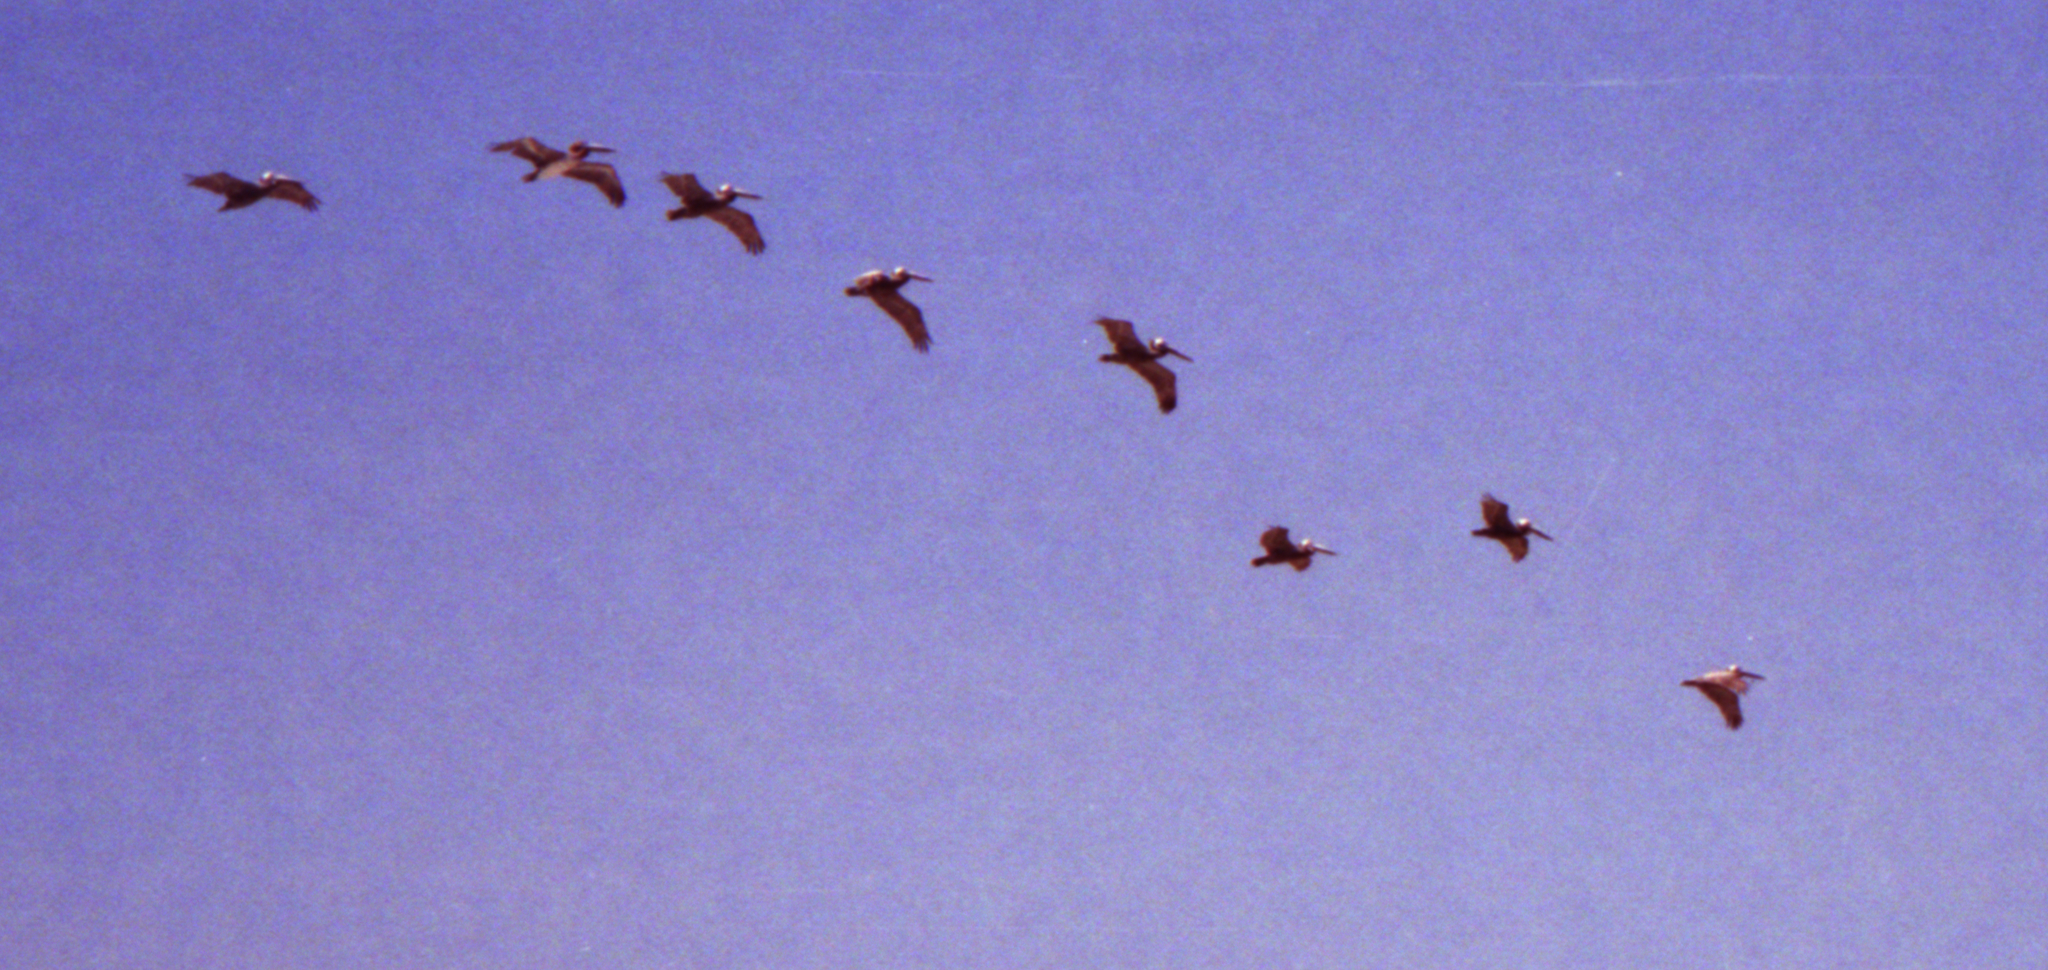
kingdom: Animalia
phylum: Chordata
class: Aves
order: Pelecaniformes
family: Pelecanidae
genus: Pelecanus
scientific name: Pelecanus occidentalis
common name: Brown pelican
